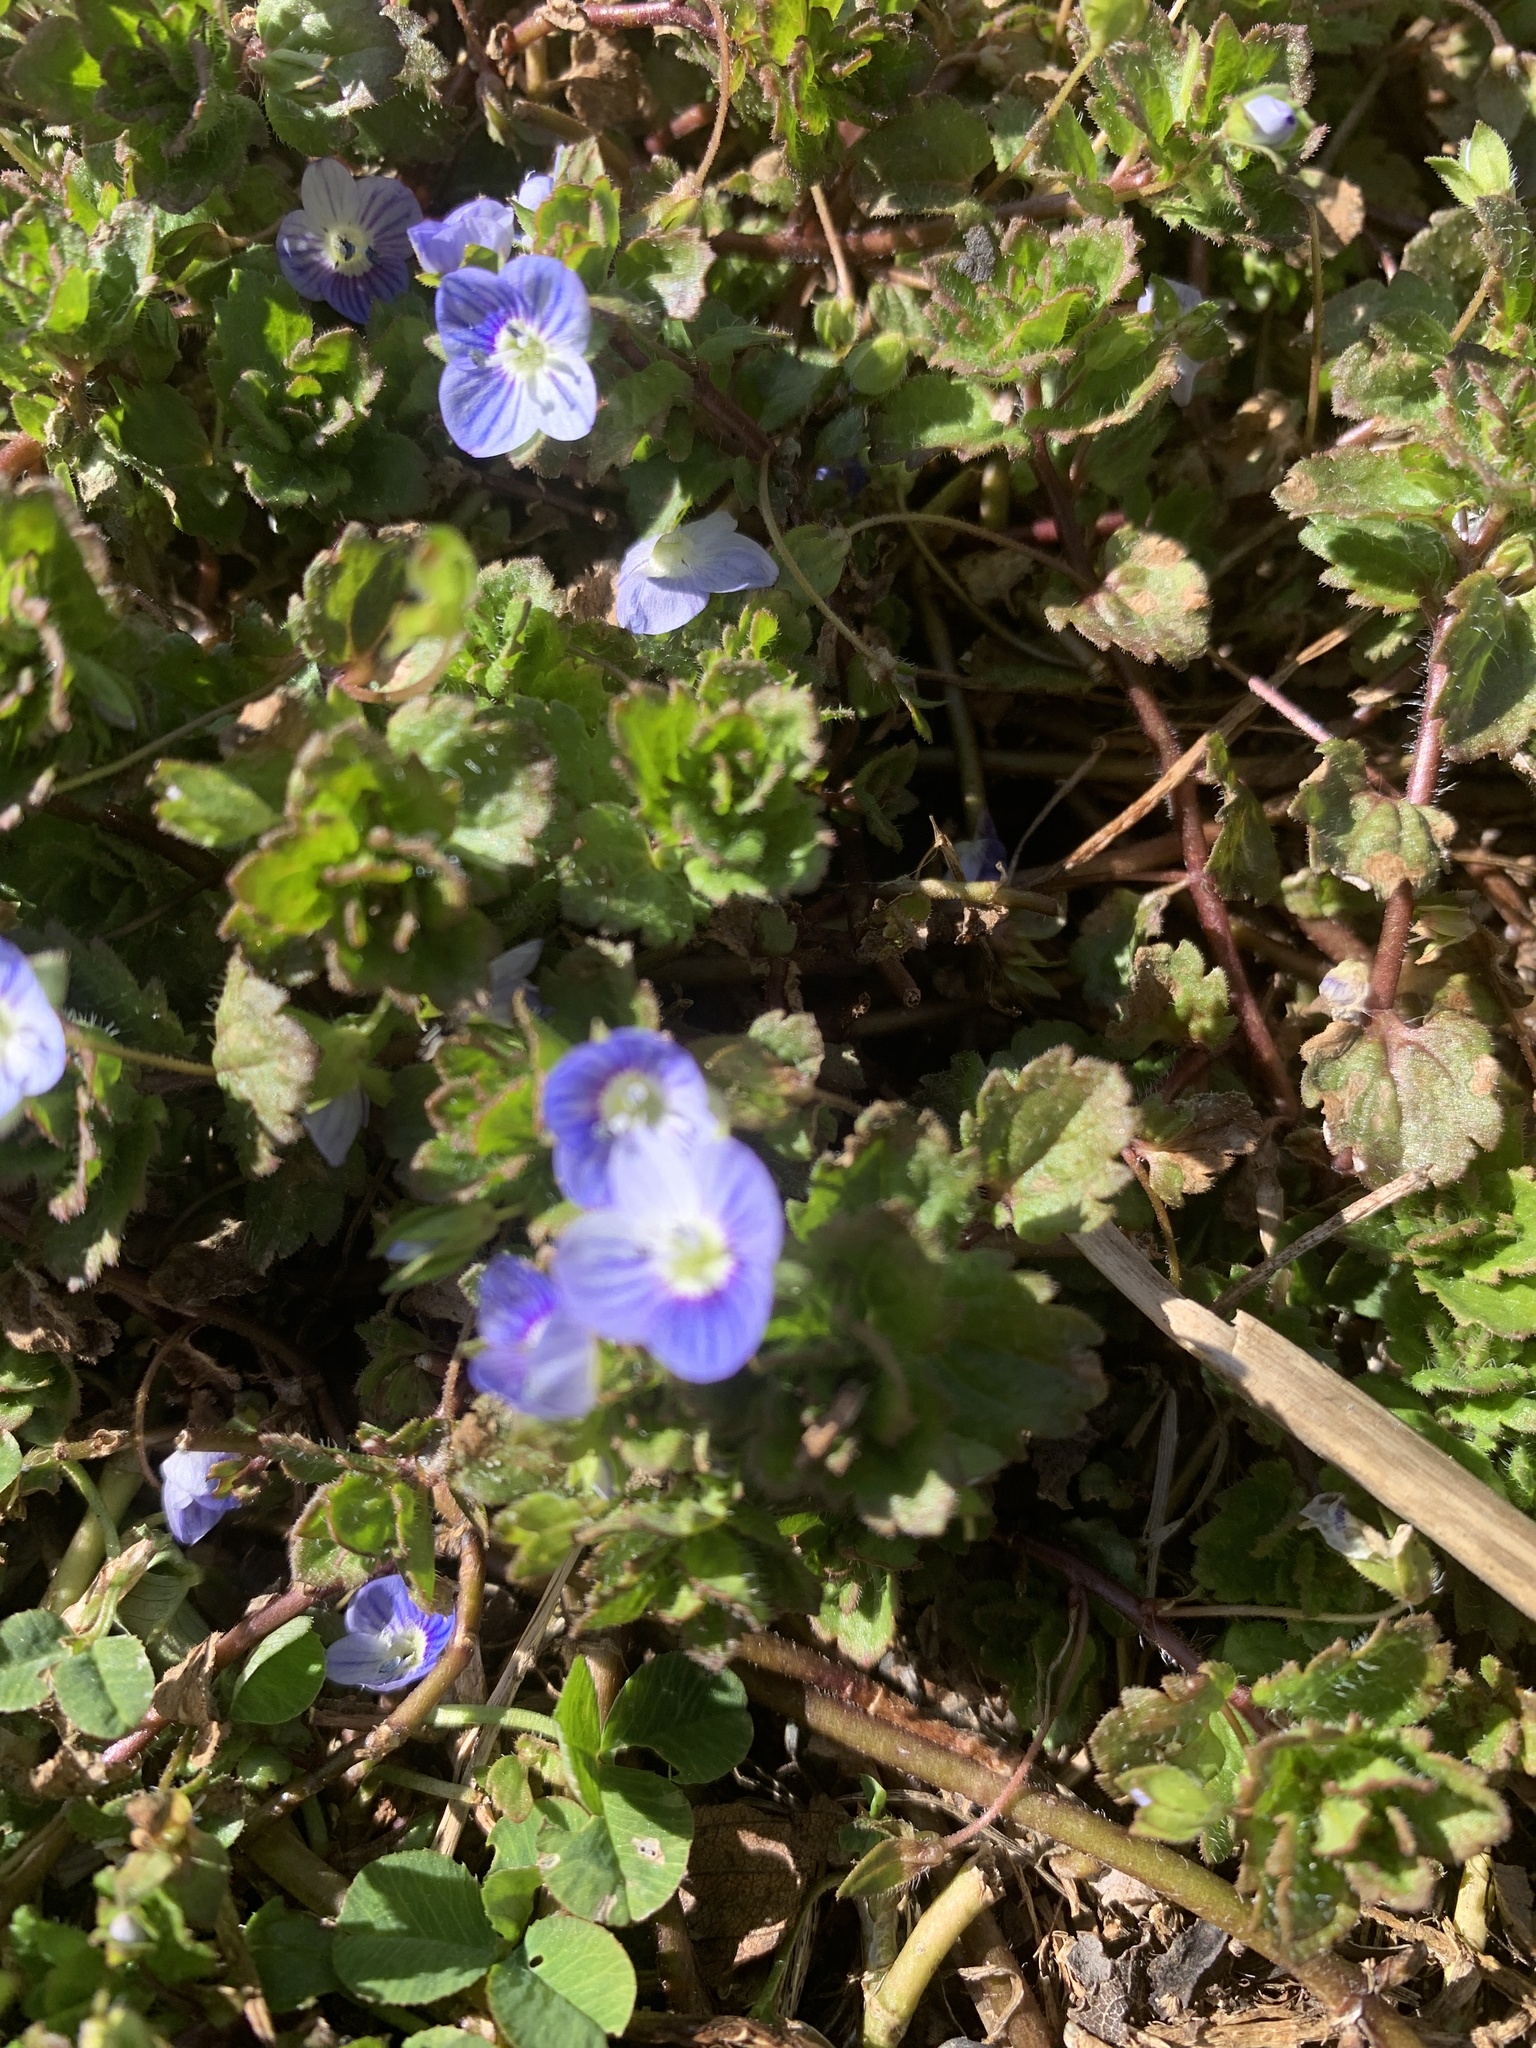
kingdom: Plantae
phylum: Tracheophyta
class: Magnoliopsida
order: Lamiales
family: Plantaginaceae
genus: Veronica
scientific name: Veronica persica
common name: Common field-speedwell
